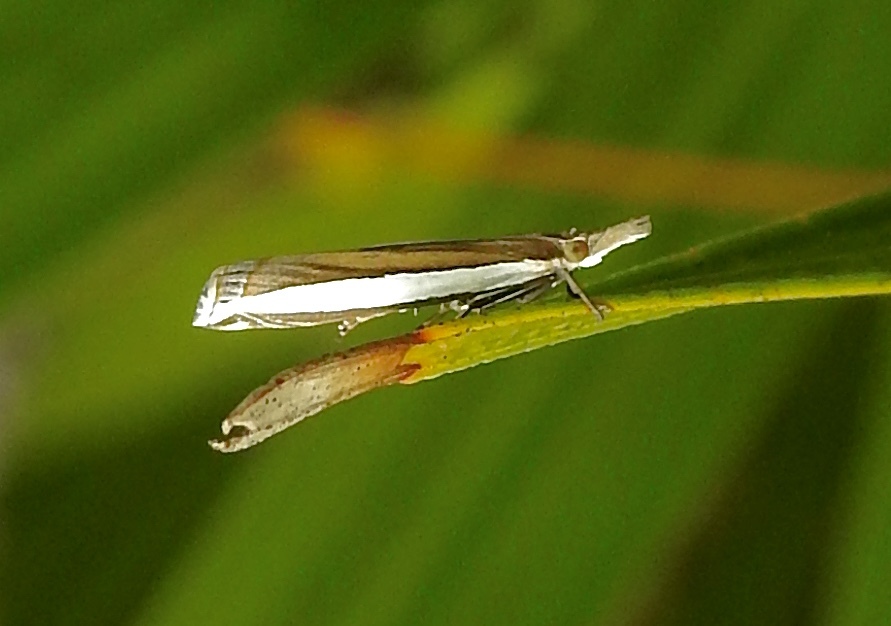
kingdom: Animalia
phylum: Arthropoda
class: Insecta
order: Lepidoptera
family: Crambidae
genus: Crambus
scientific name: Crambus quinquareatus
